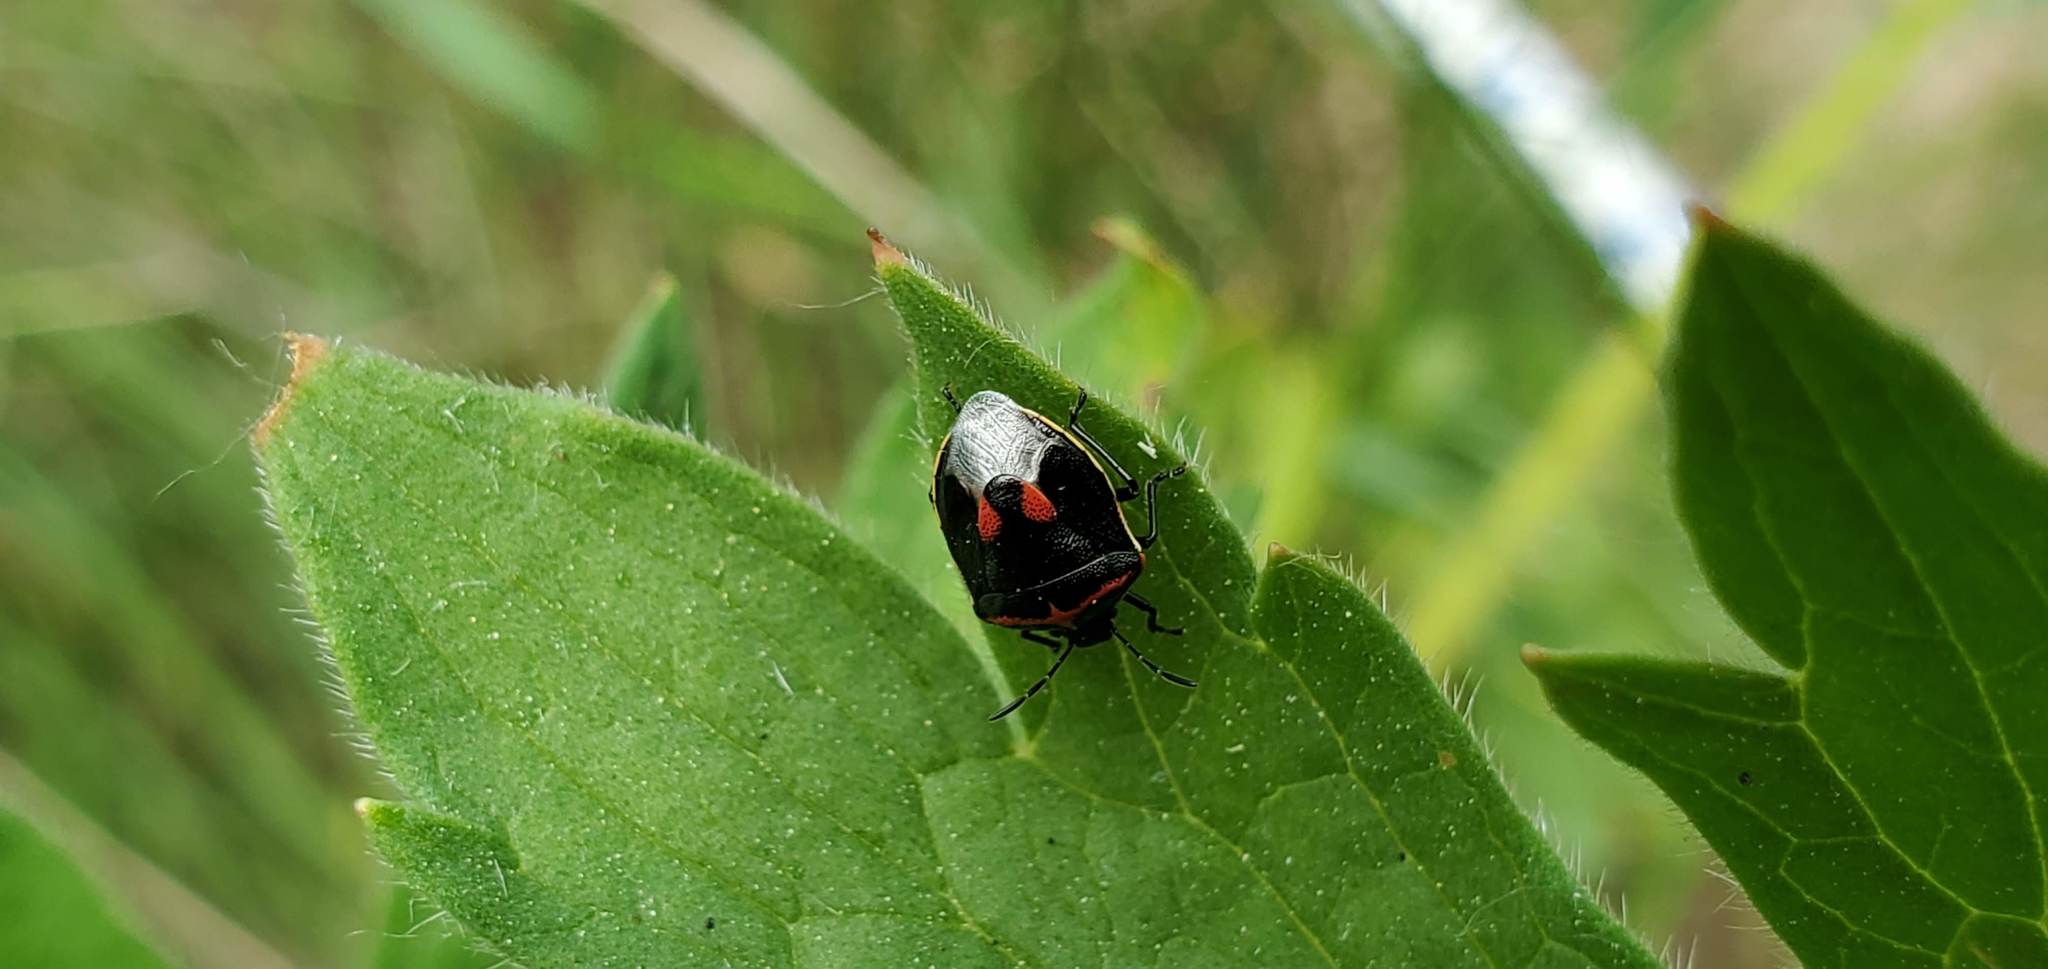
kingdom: Animalia
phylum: Arthropoda
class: Insecta
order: Hemiptera
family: Pentatomidae
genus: Cosmopepla
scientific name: Cosmopepla lintneriana
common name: Twice-stabbed stink bug
